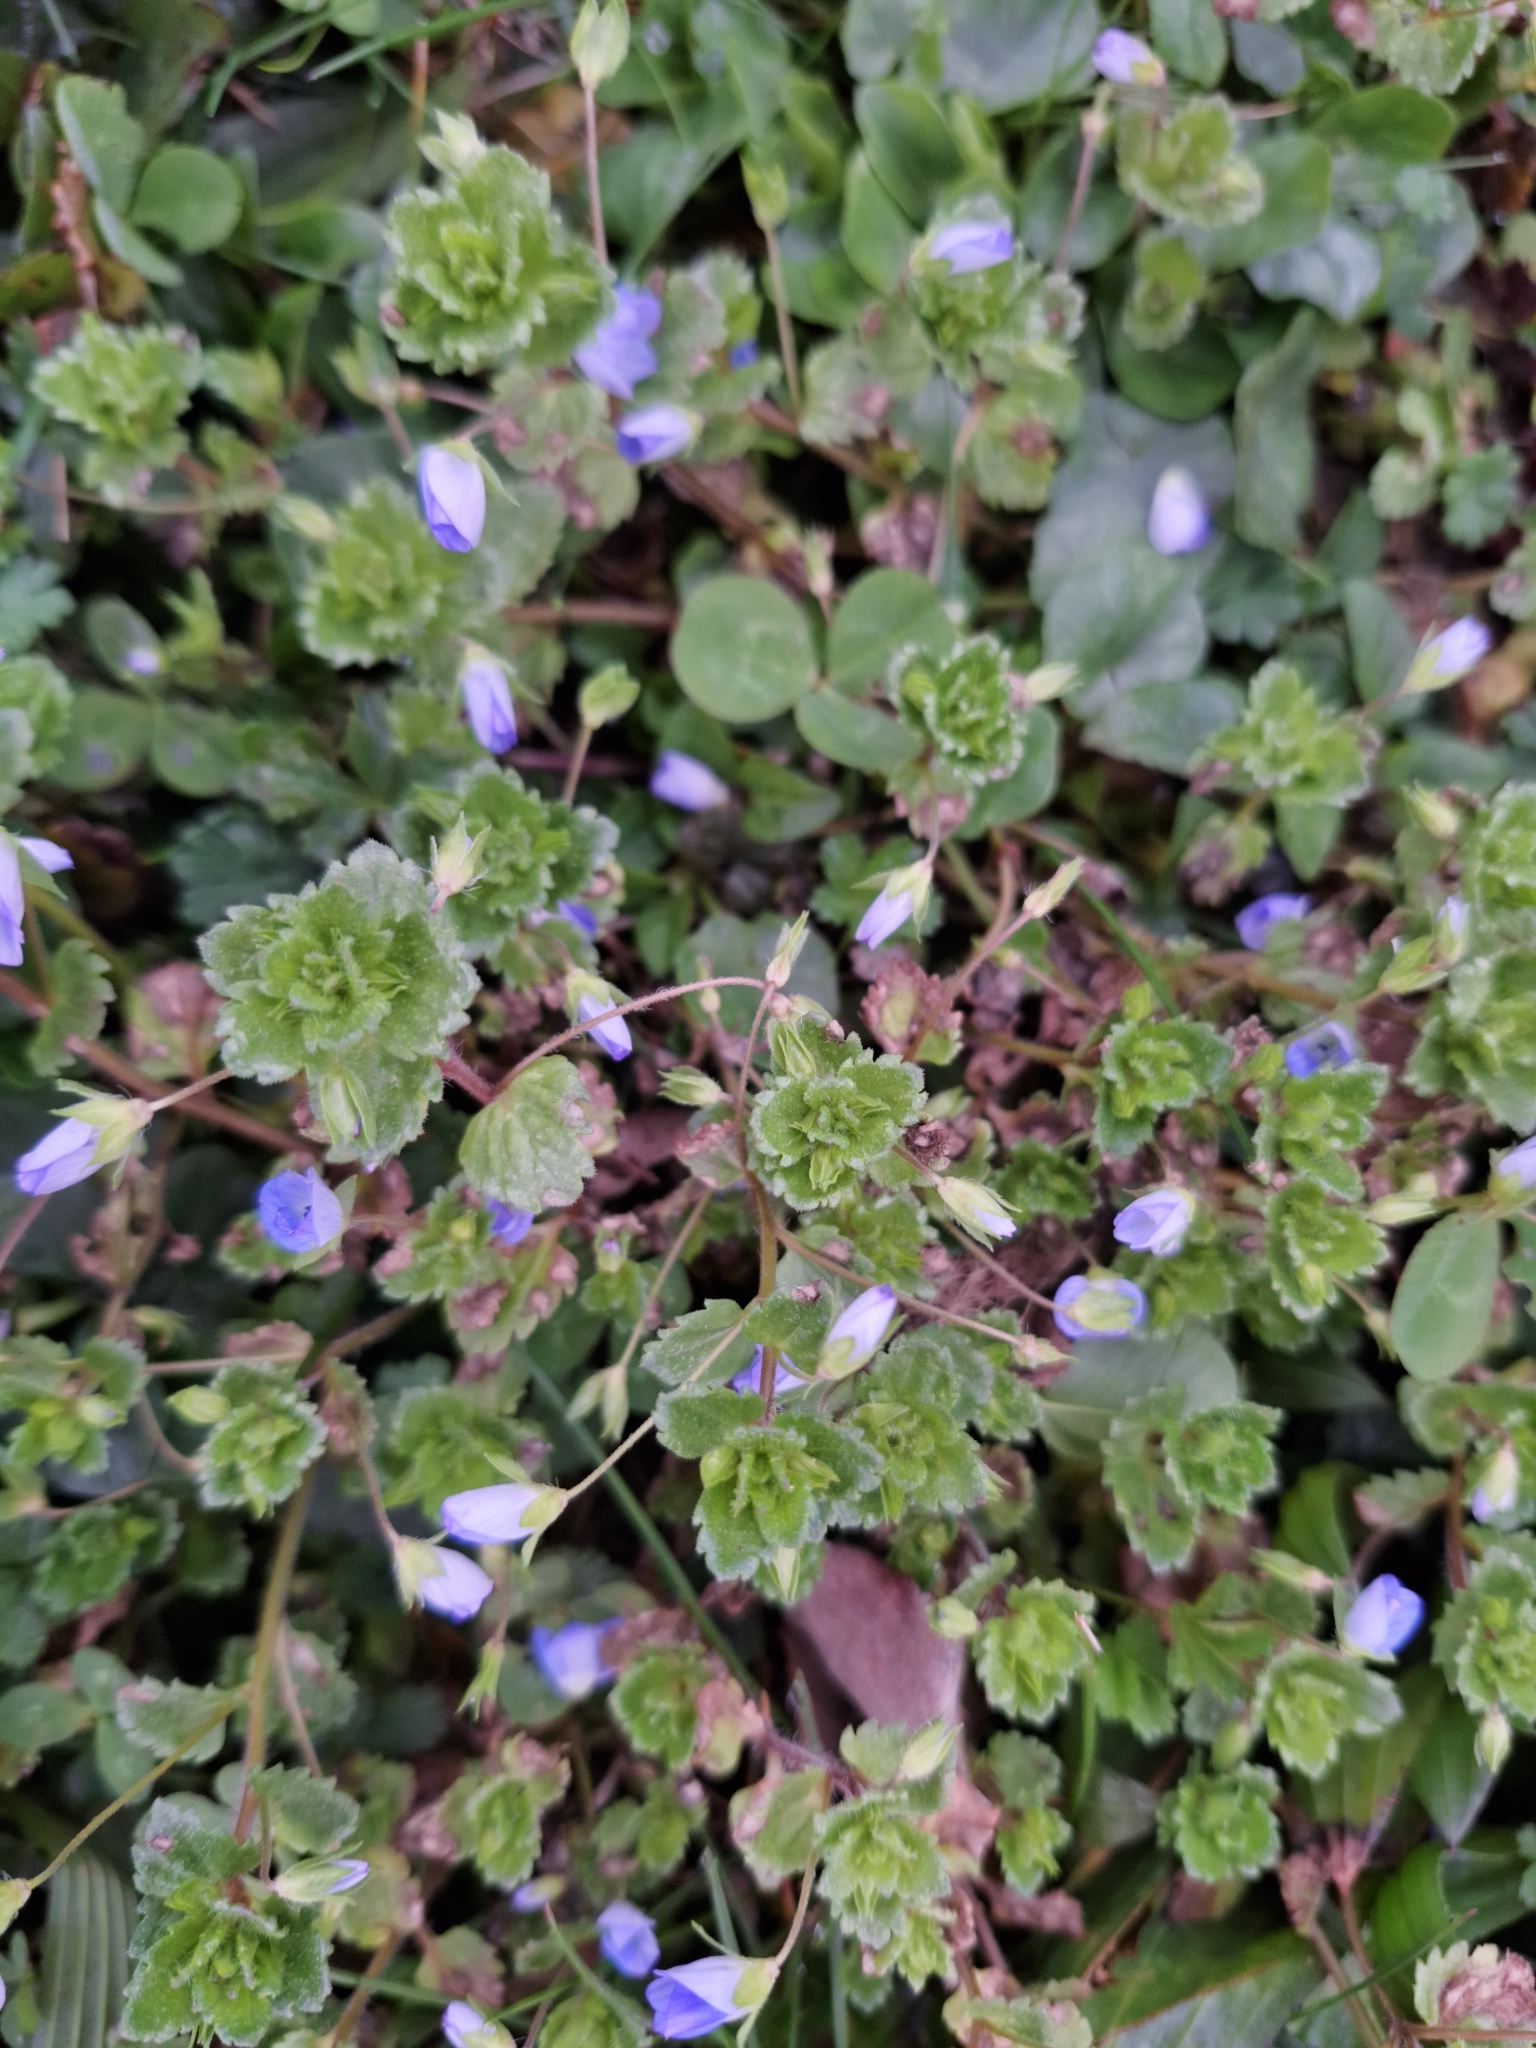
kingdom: Plantae
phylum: Tracheophyta
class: Magnoliopsida
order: Lamiales
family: Plantaginaceae
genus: Veronica
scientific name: Veronica persica
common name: Common field-speedwell
